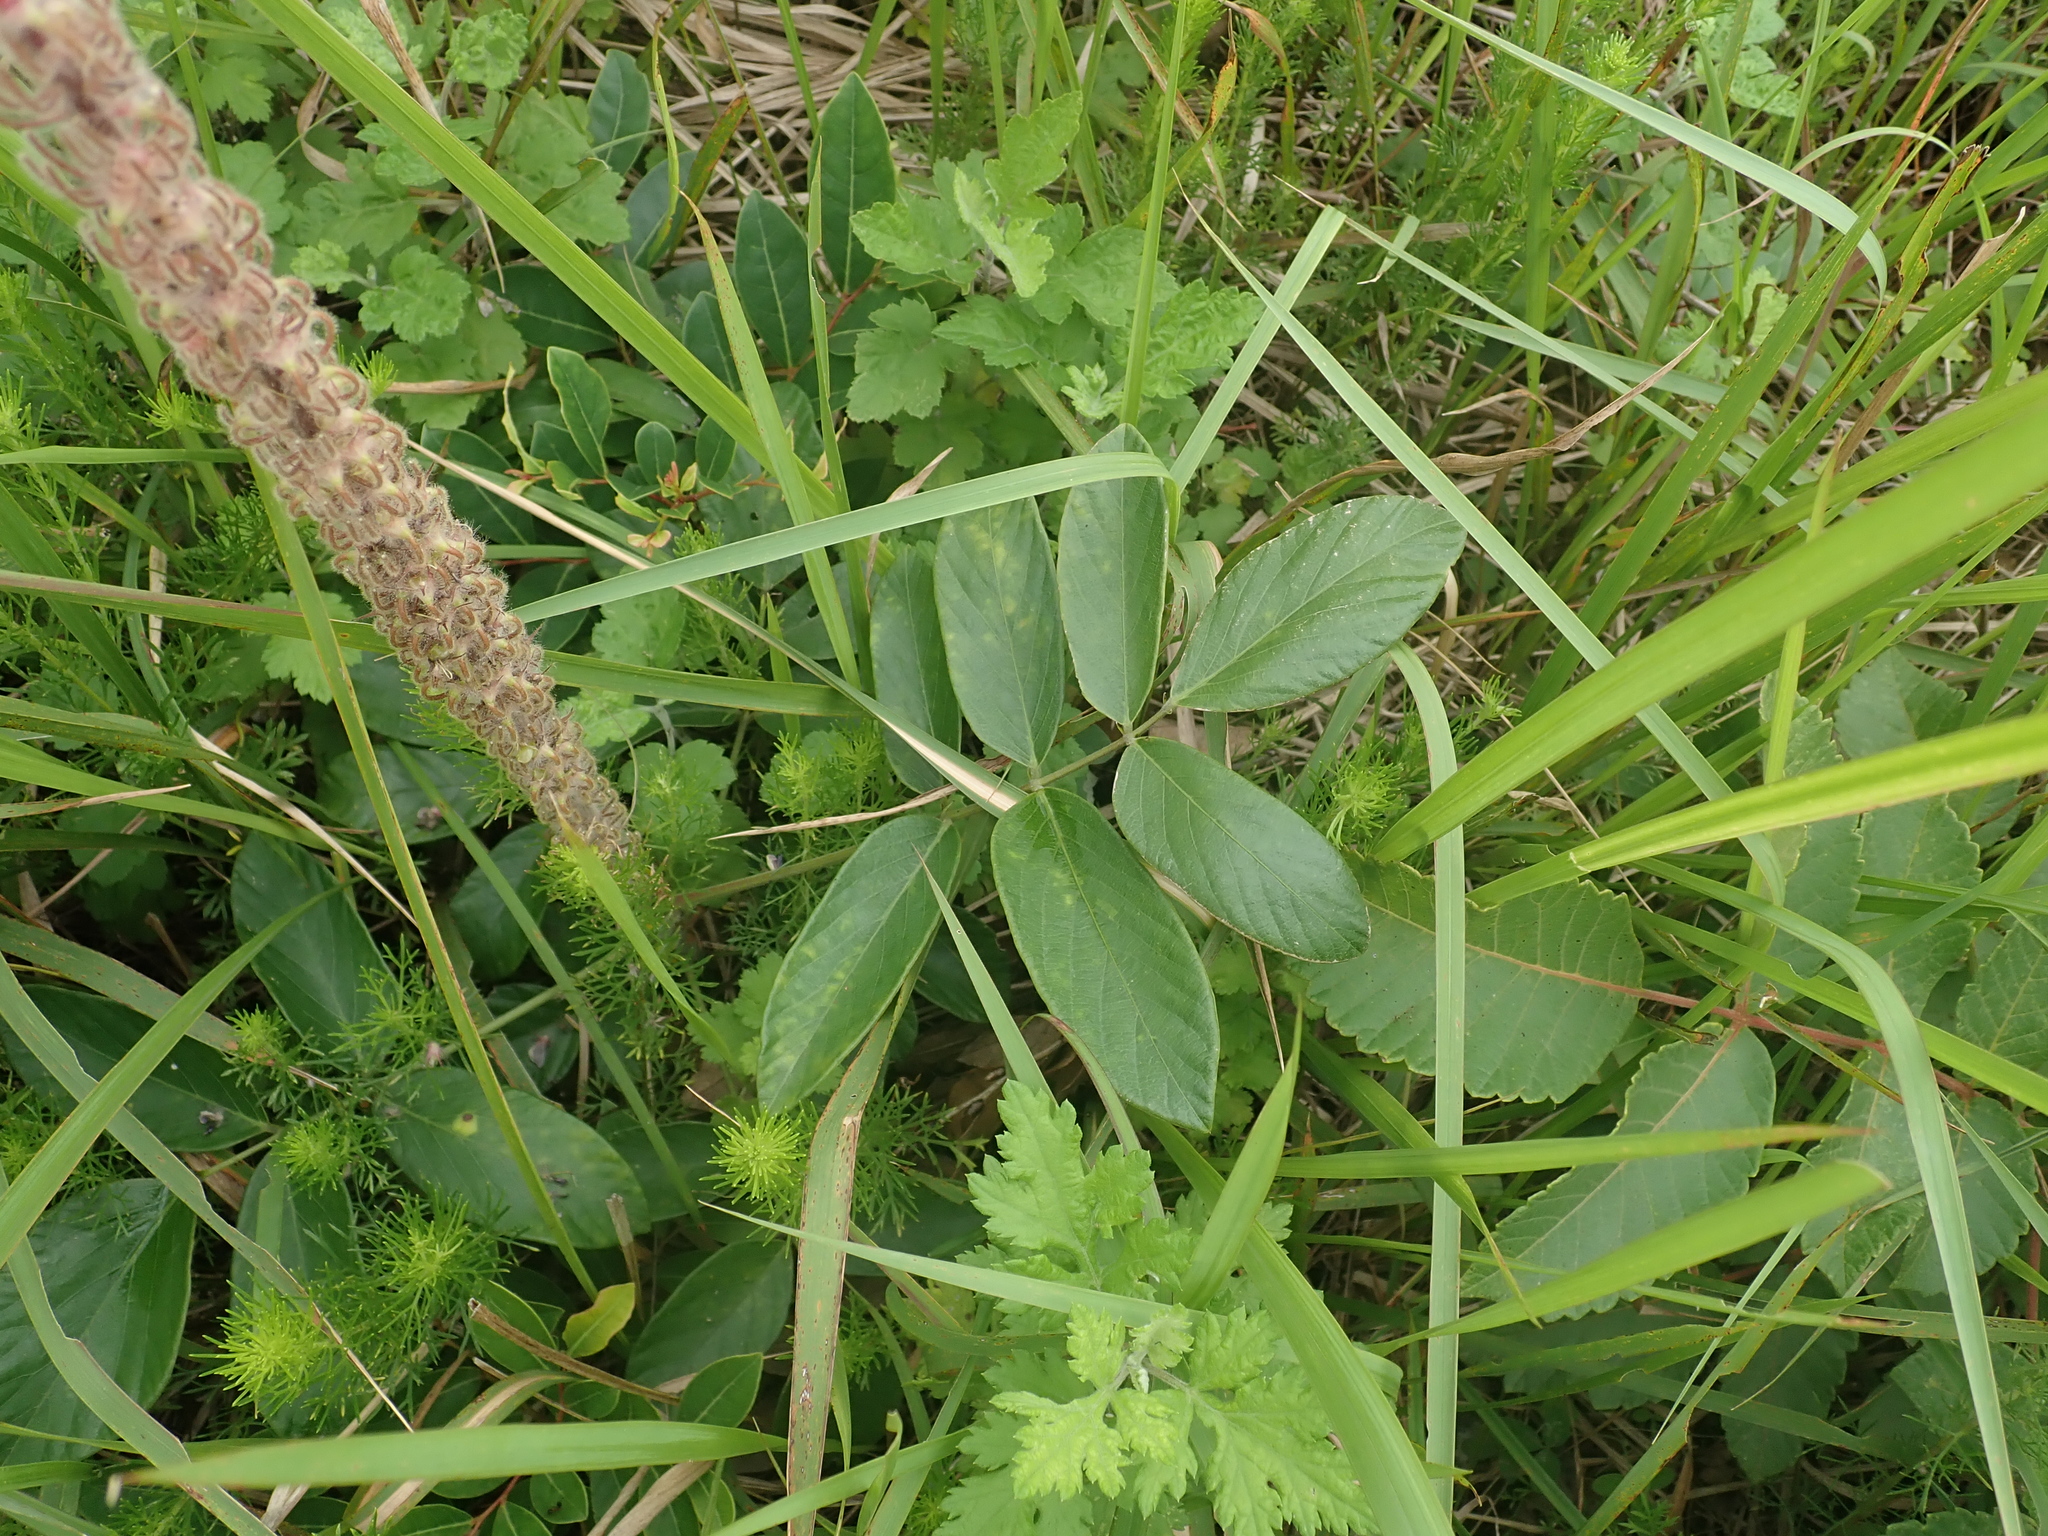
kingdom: Plantae
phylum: Tracheophyta
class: Magnoliopsida
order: Fabales
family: Fabaceae
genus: Uraria
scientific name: Uraria crinita
